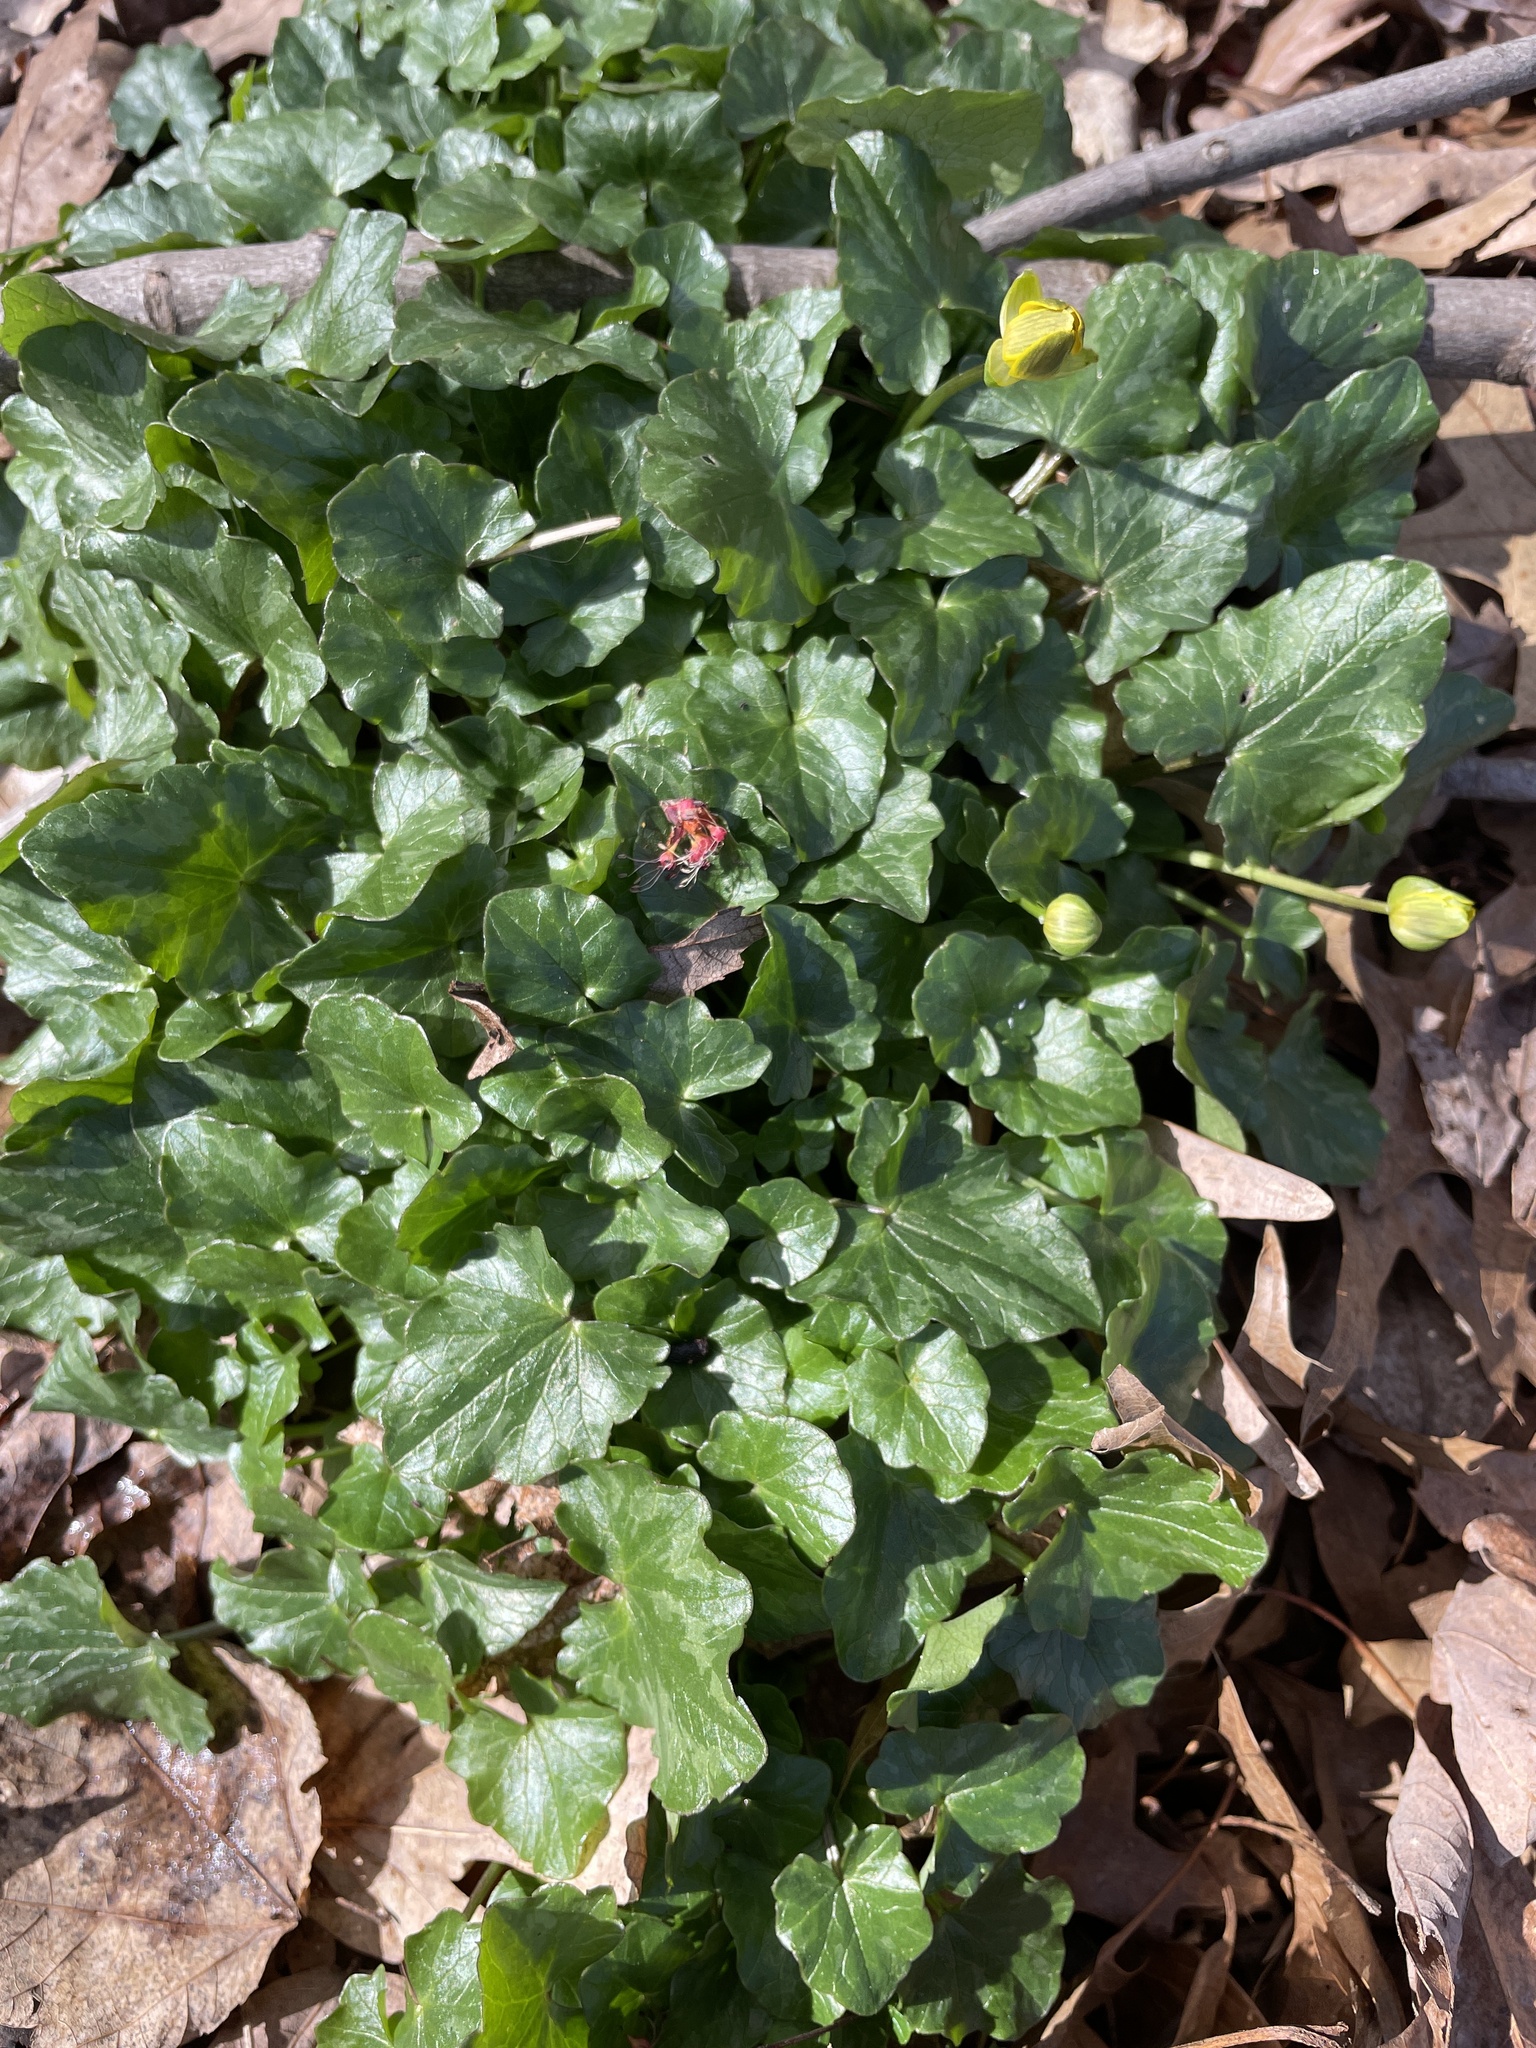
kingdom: Plantae
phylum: Tracheophyta
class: Magnoliopsida
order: Ranunculales
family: Ranunculaceae
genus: Ficaria
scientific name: Ficaria verna
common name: Lesser celandine
